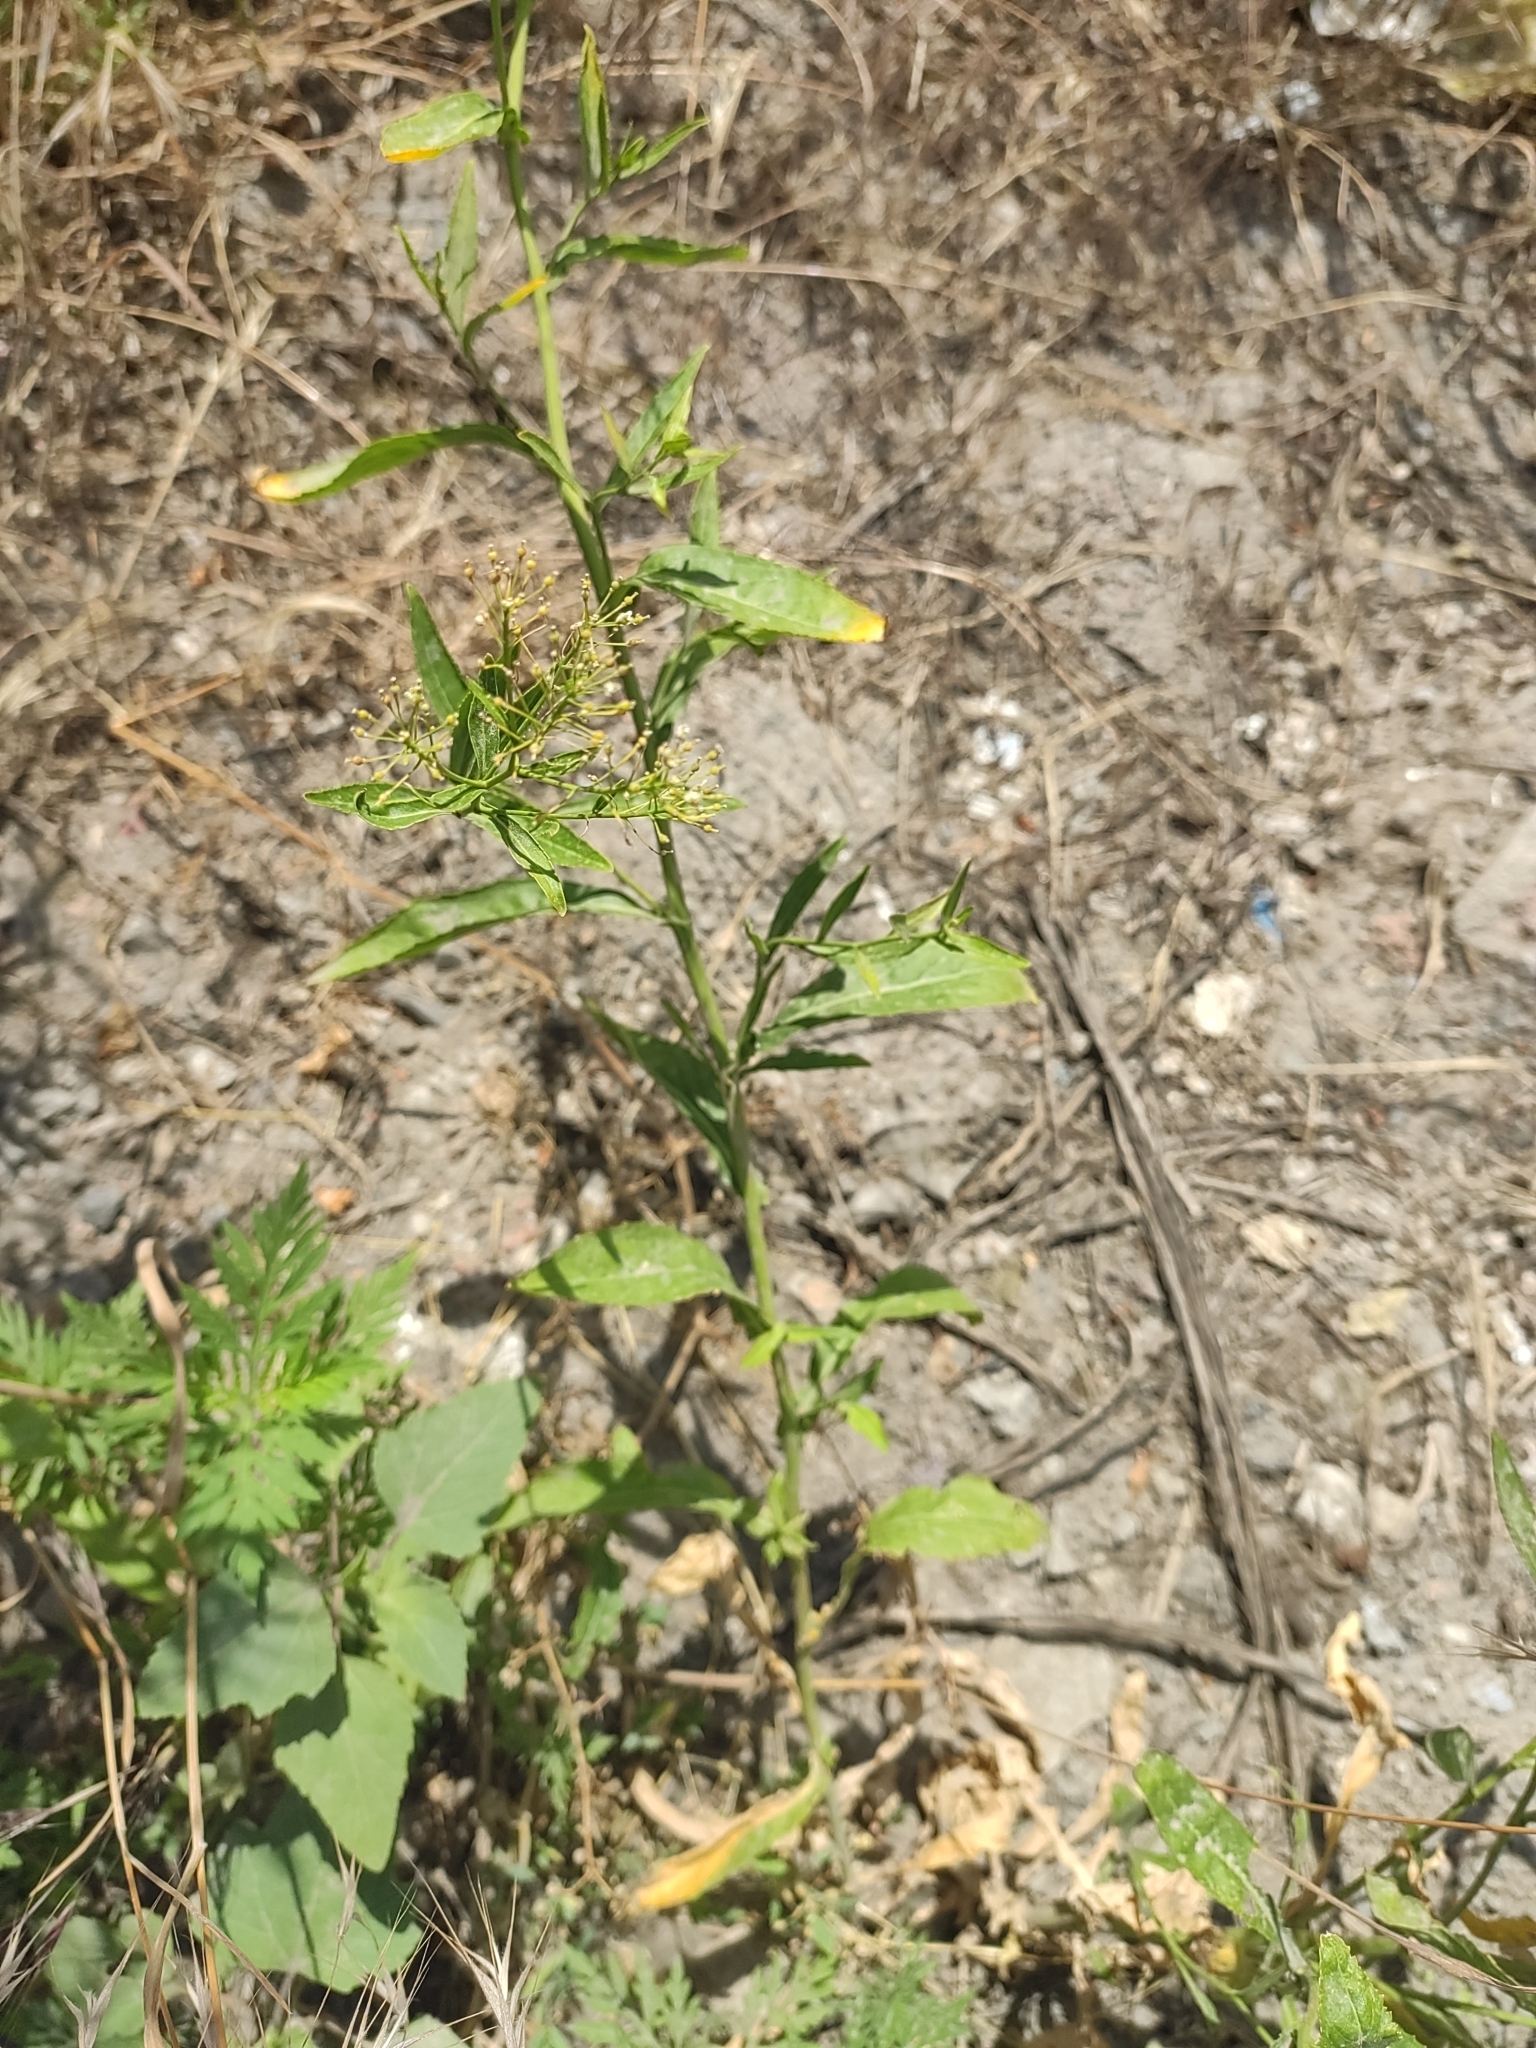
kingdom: Plantae
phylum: Tracheophyta
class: Magnoliopsida
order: Brassicales
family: Brassicaceae
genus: Rorippa
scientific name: Rorippa austriaca
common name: Austrian yellow-cress
